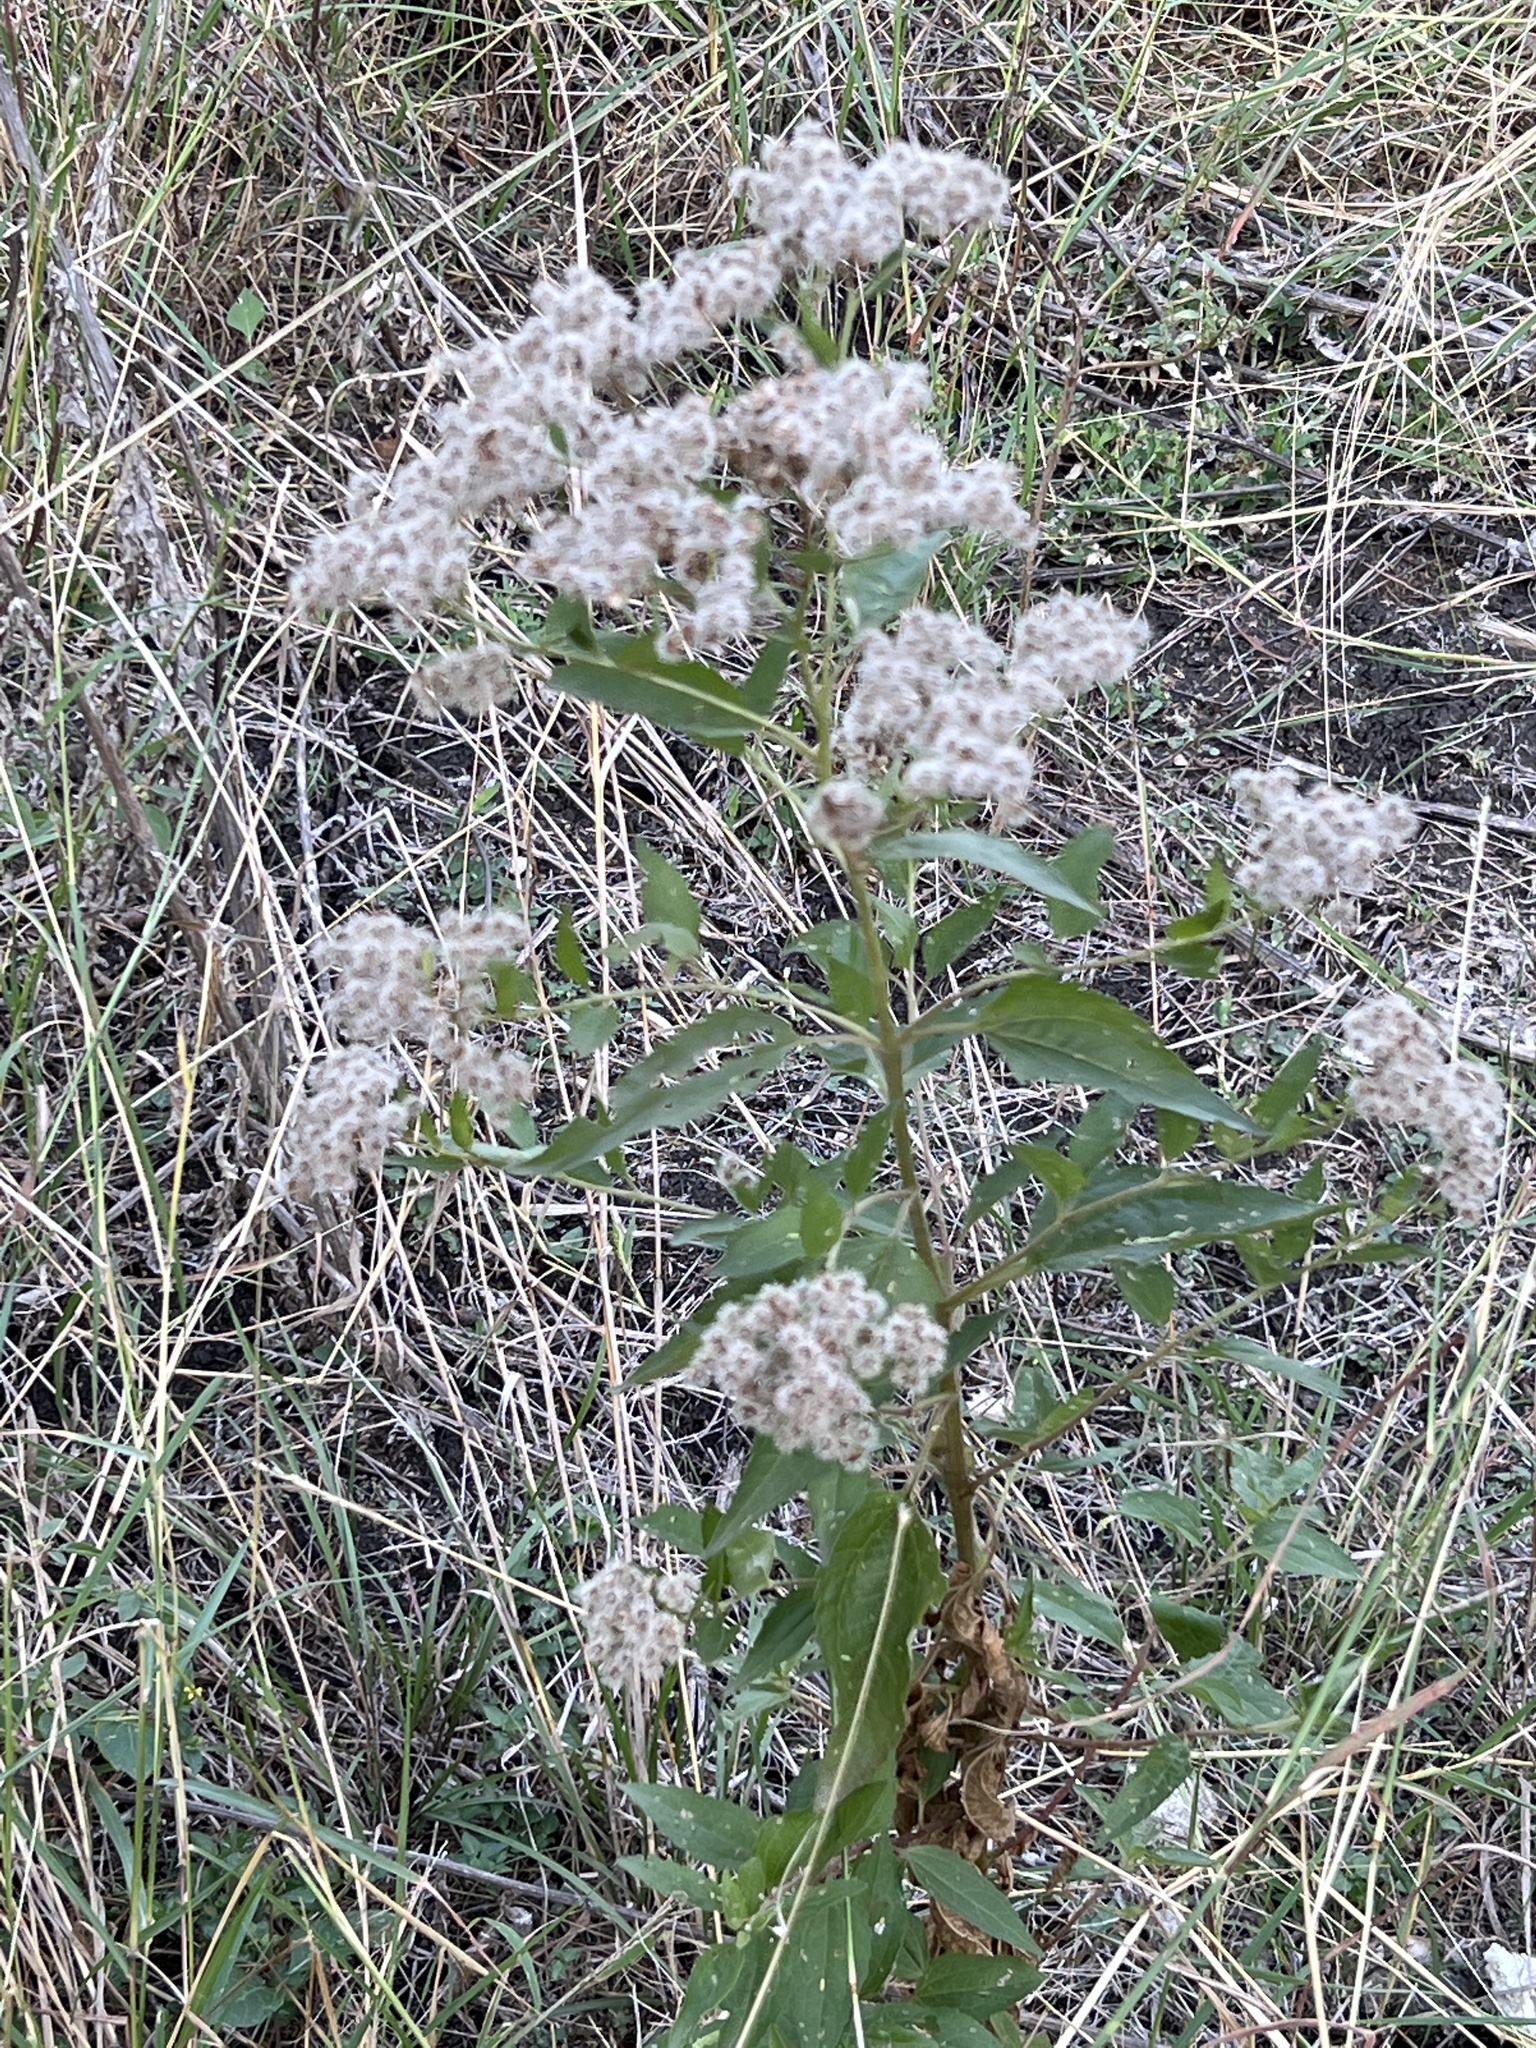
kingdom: Plantae
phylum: Tracheophyta
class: Magnoliopsida
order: Asterales
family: Asteraceae
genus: Eupatorium
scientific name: Eupatorium serotinum
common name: Late boneset
